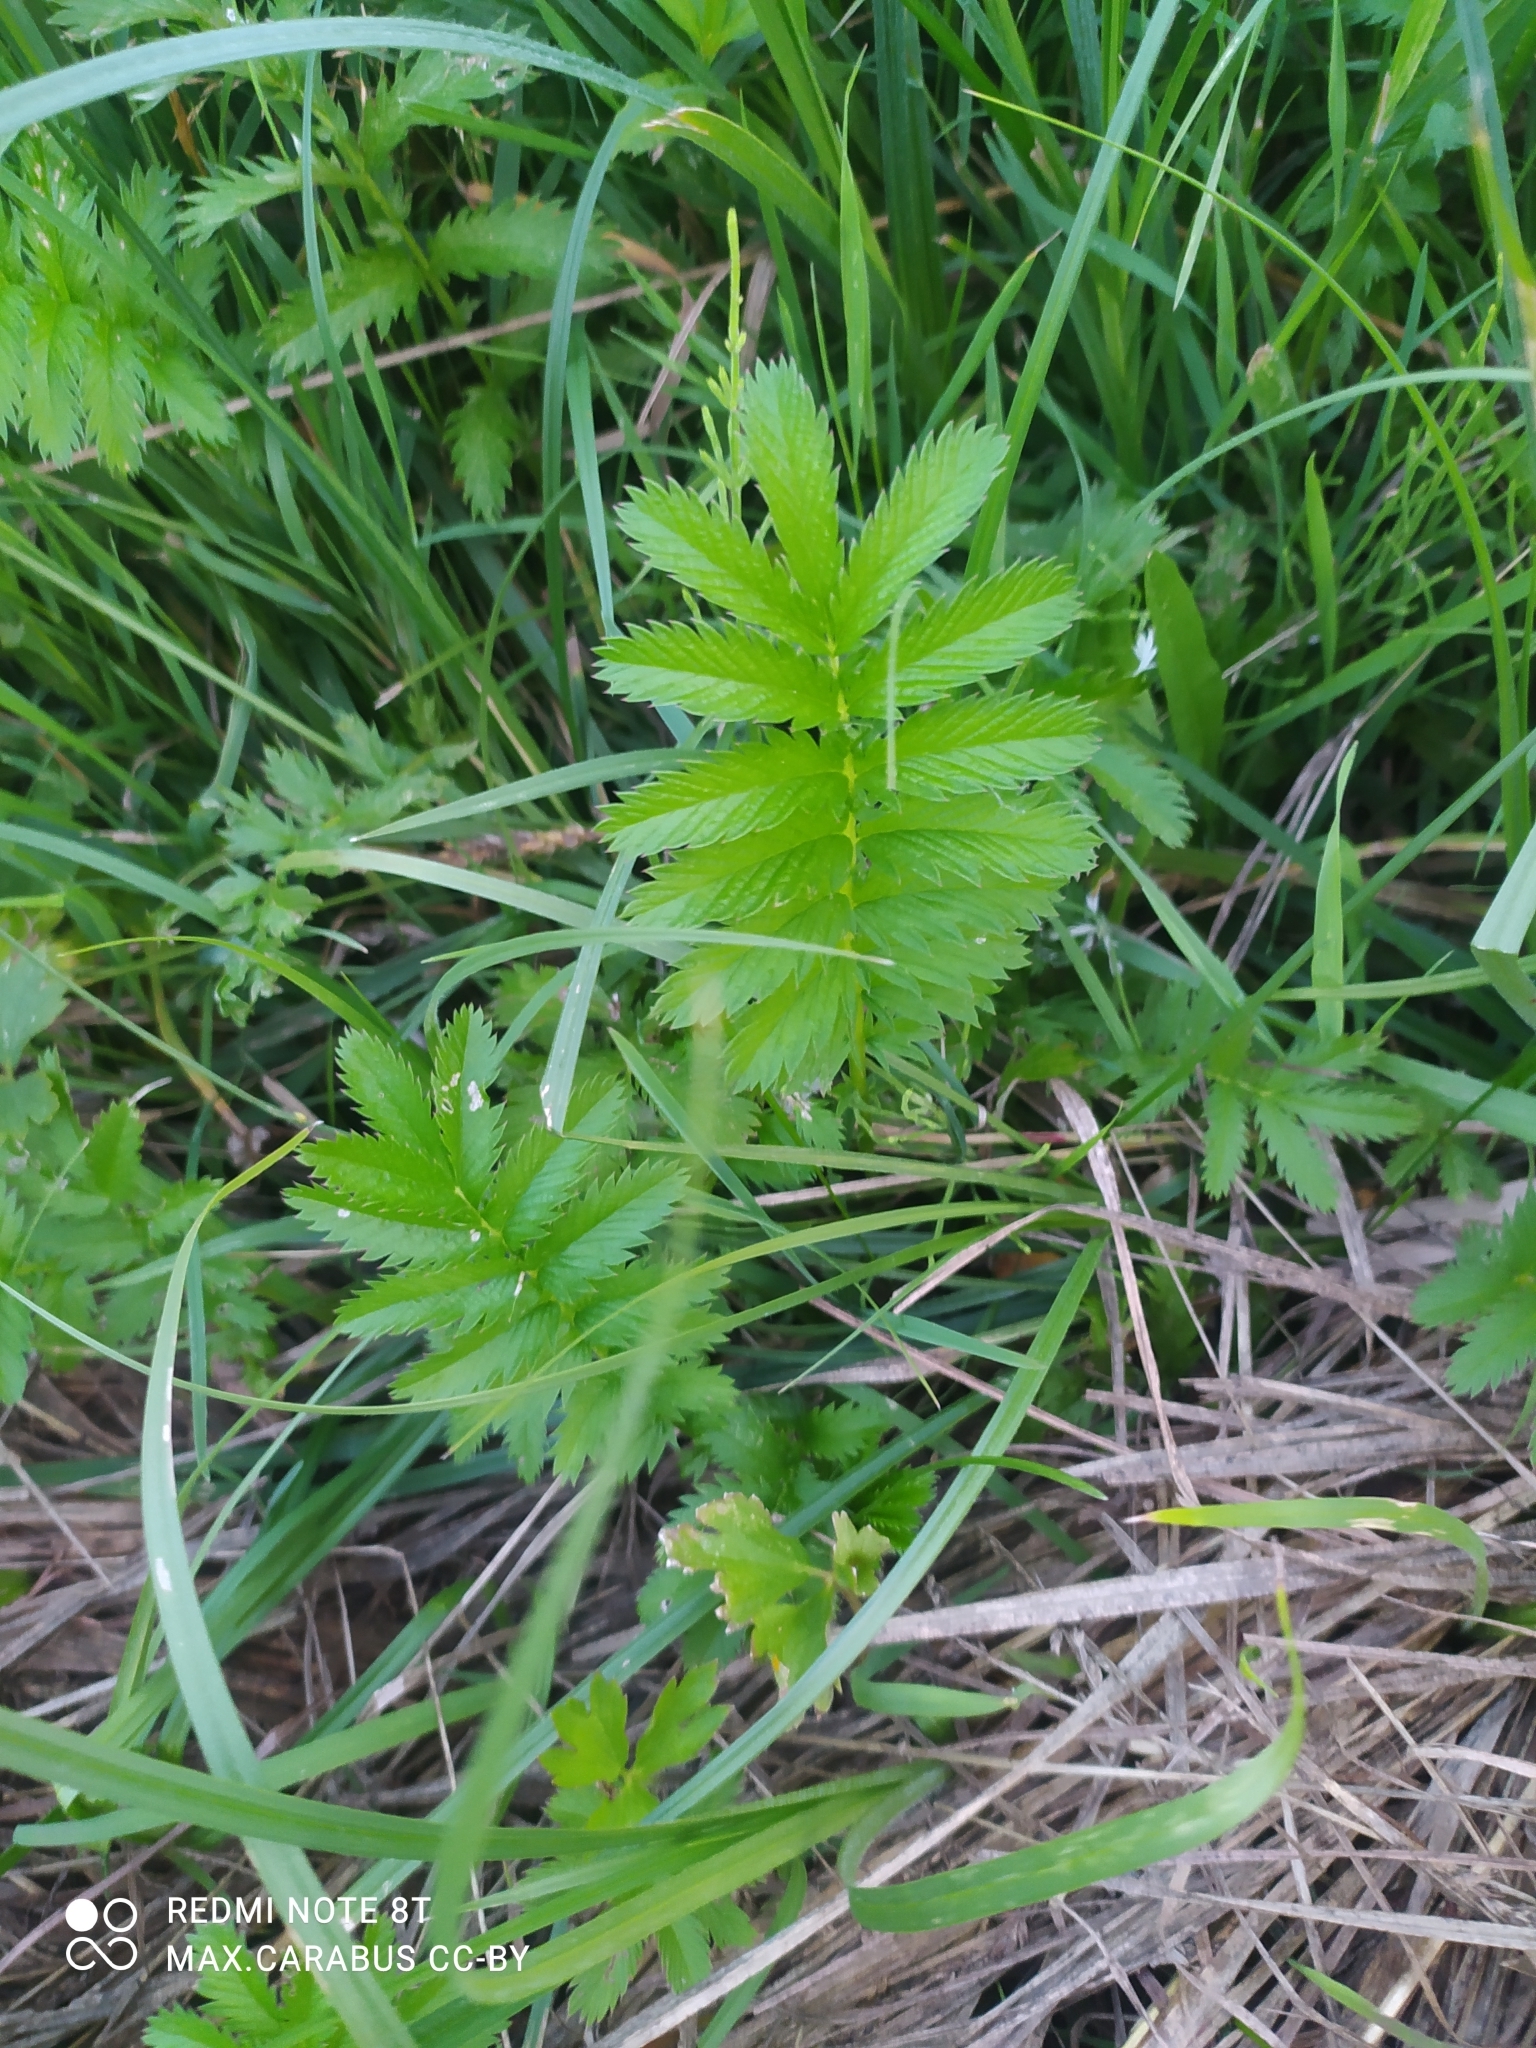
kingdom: Plantae
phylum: Tracheophyta
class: Magnoliopsida
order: Rosales
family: Rosaceae
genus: Argentina
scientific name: Argentina anserina
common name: Common silverweed
